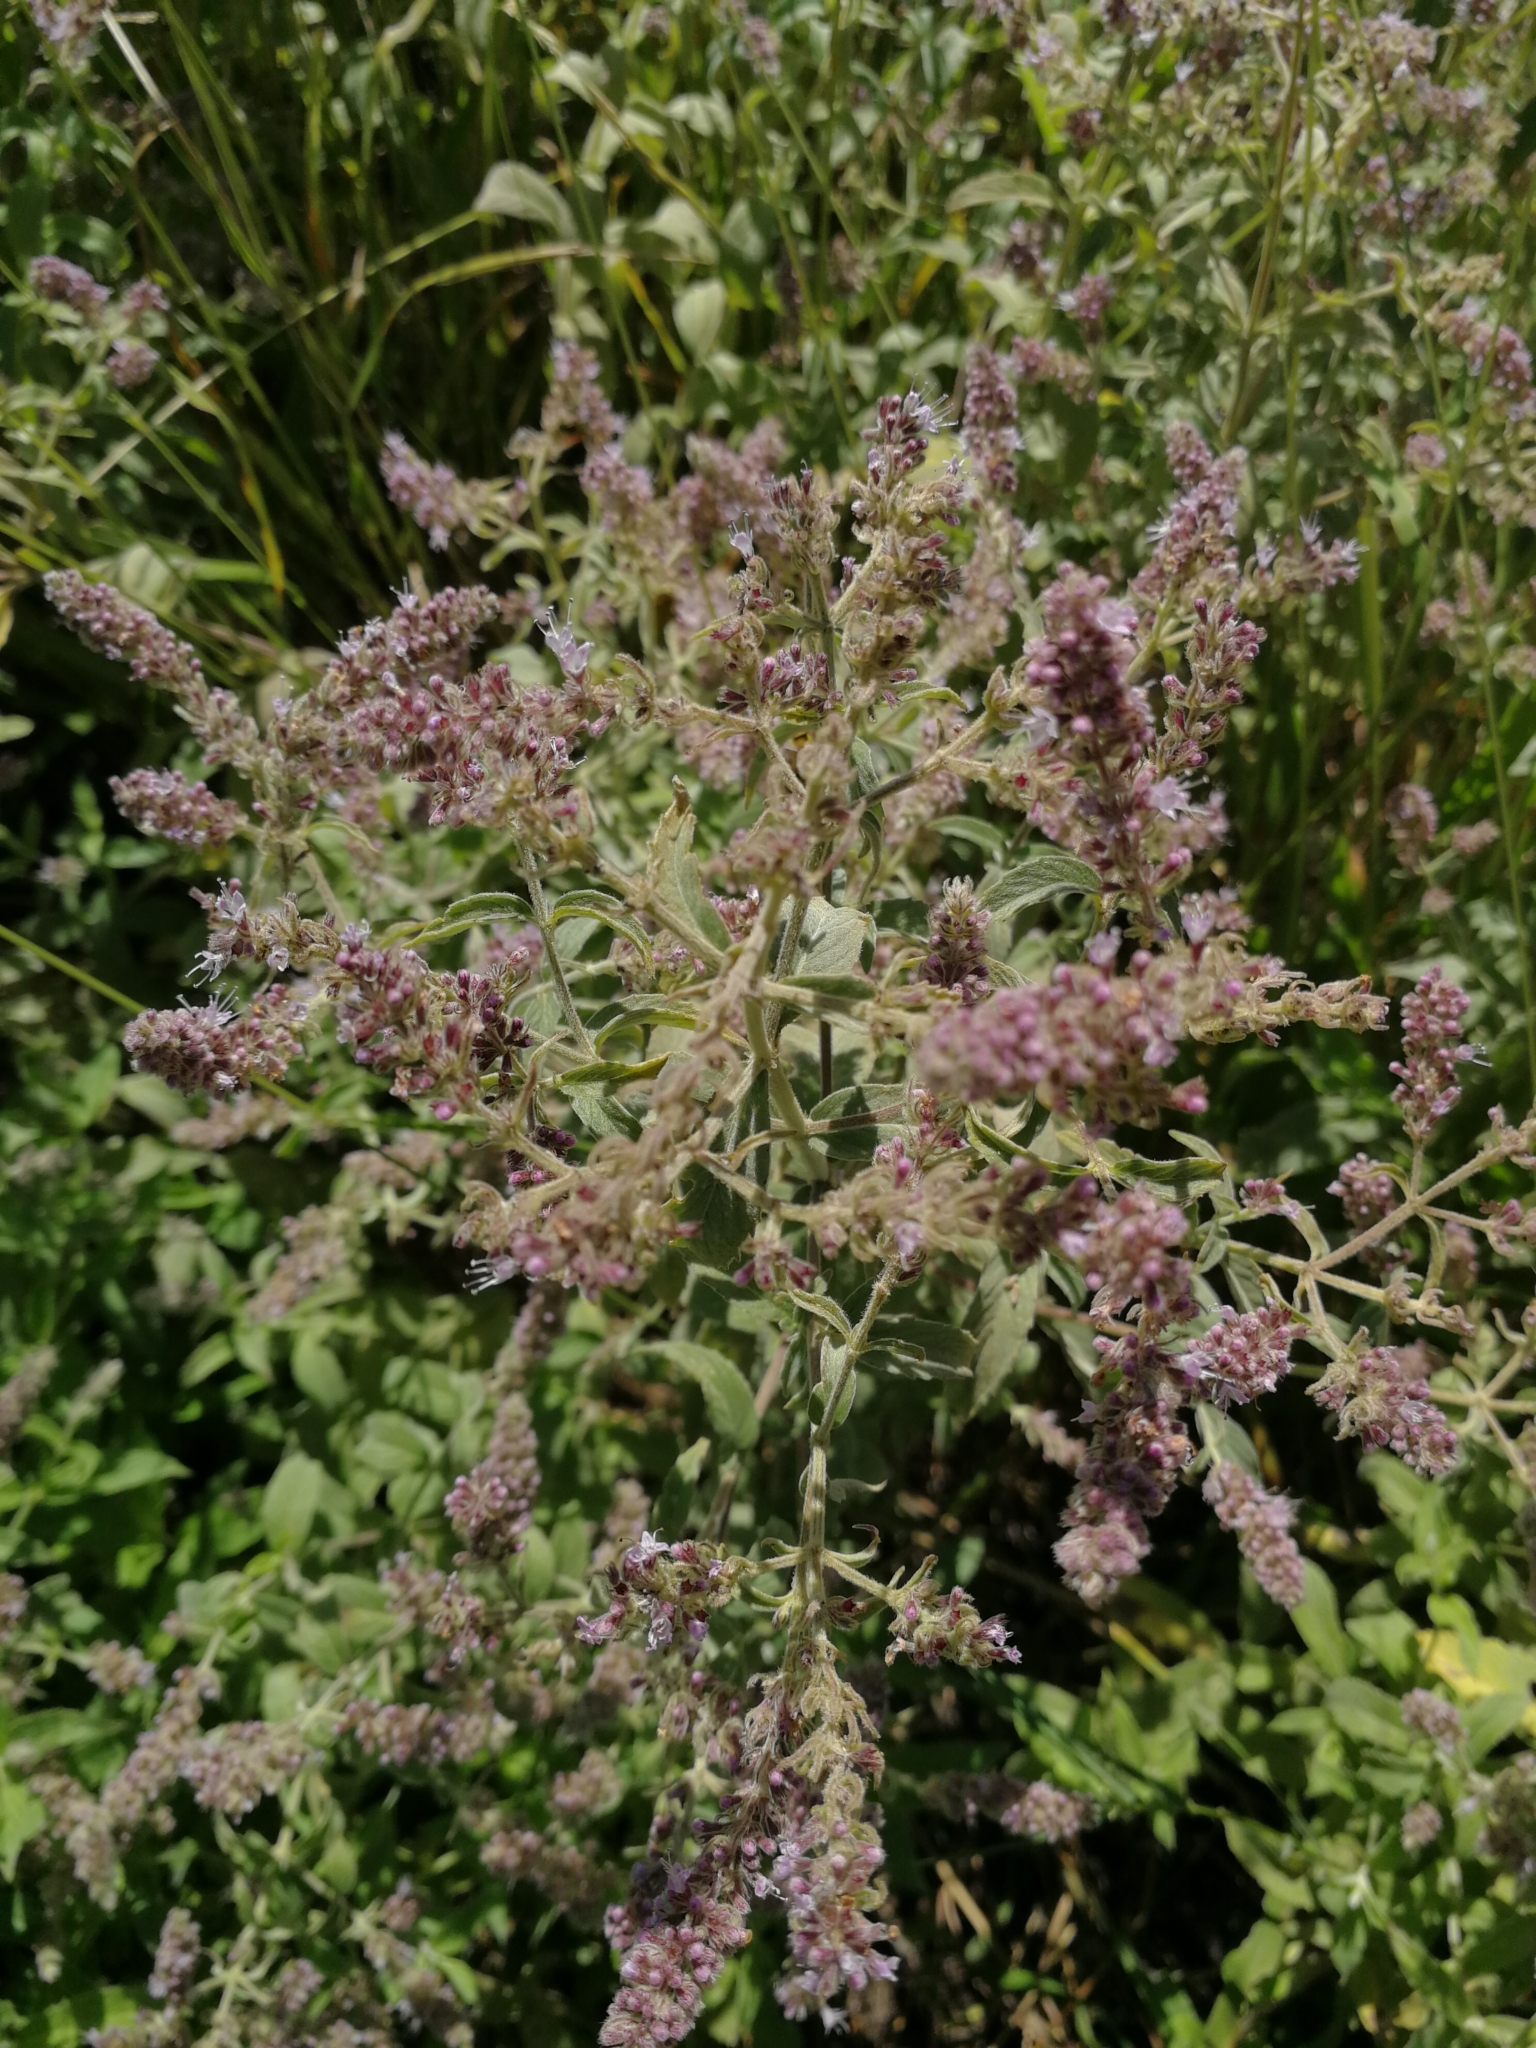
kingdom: Plantae
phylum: Tracheophyta
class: Magnoliopsida
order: Lamiales
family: Lamiaceae
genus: Mentha
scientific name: Mentha longifolia
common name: Horse mint
